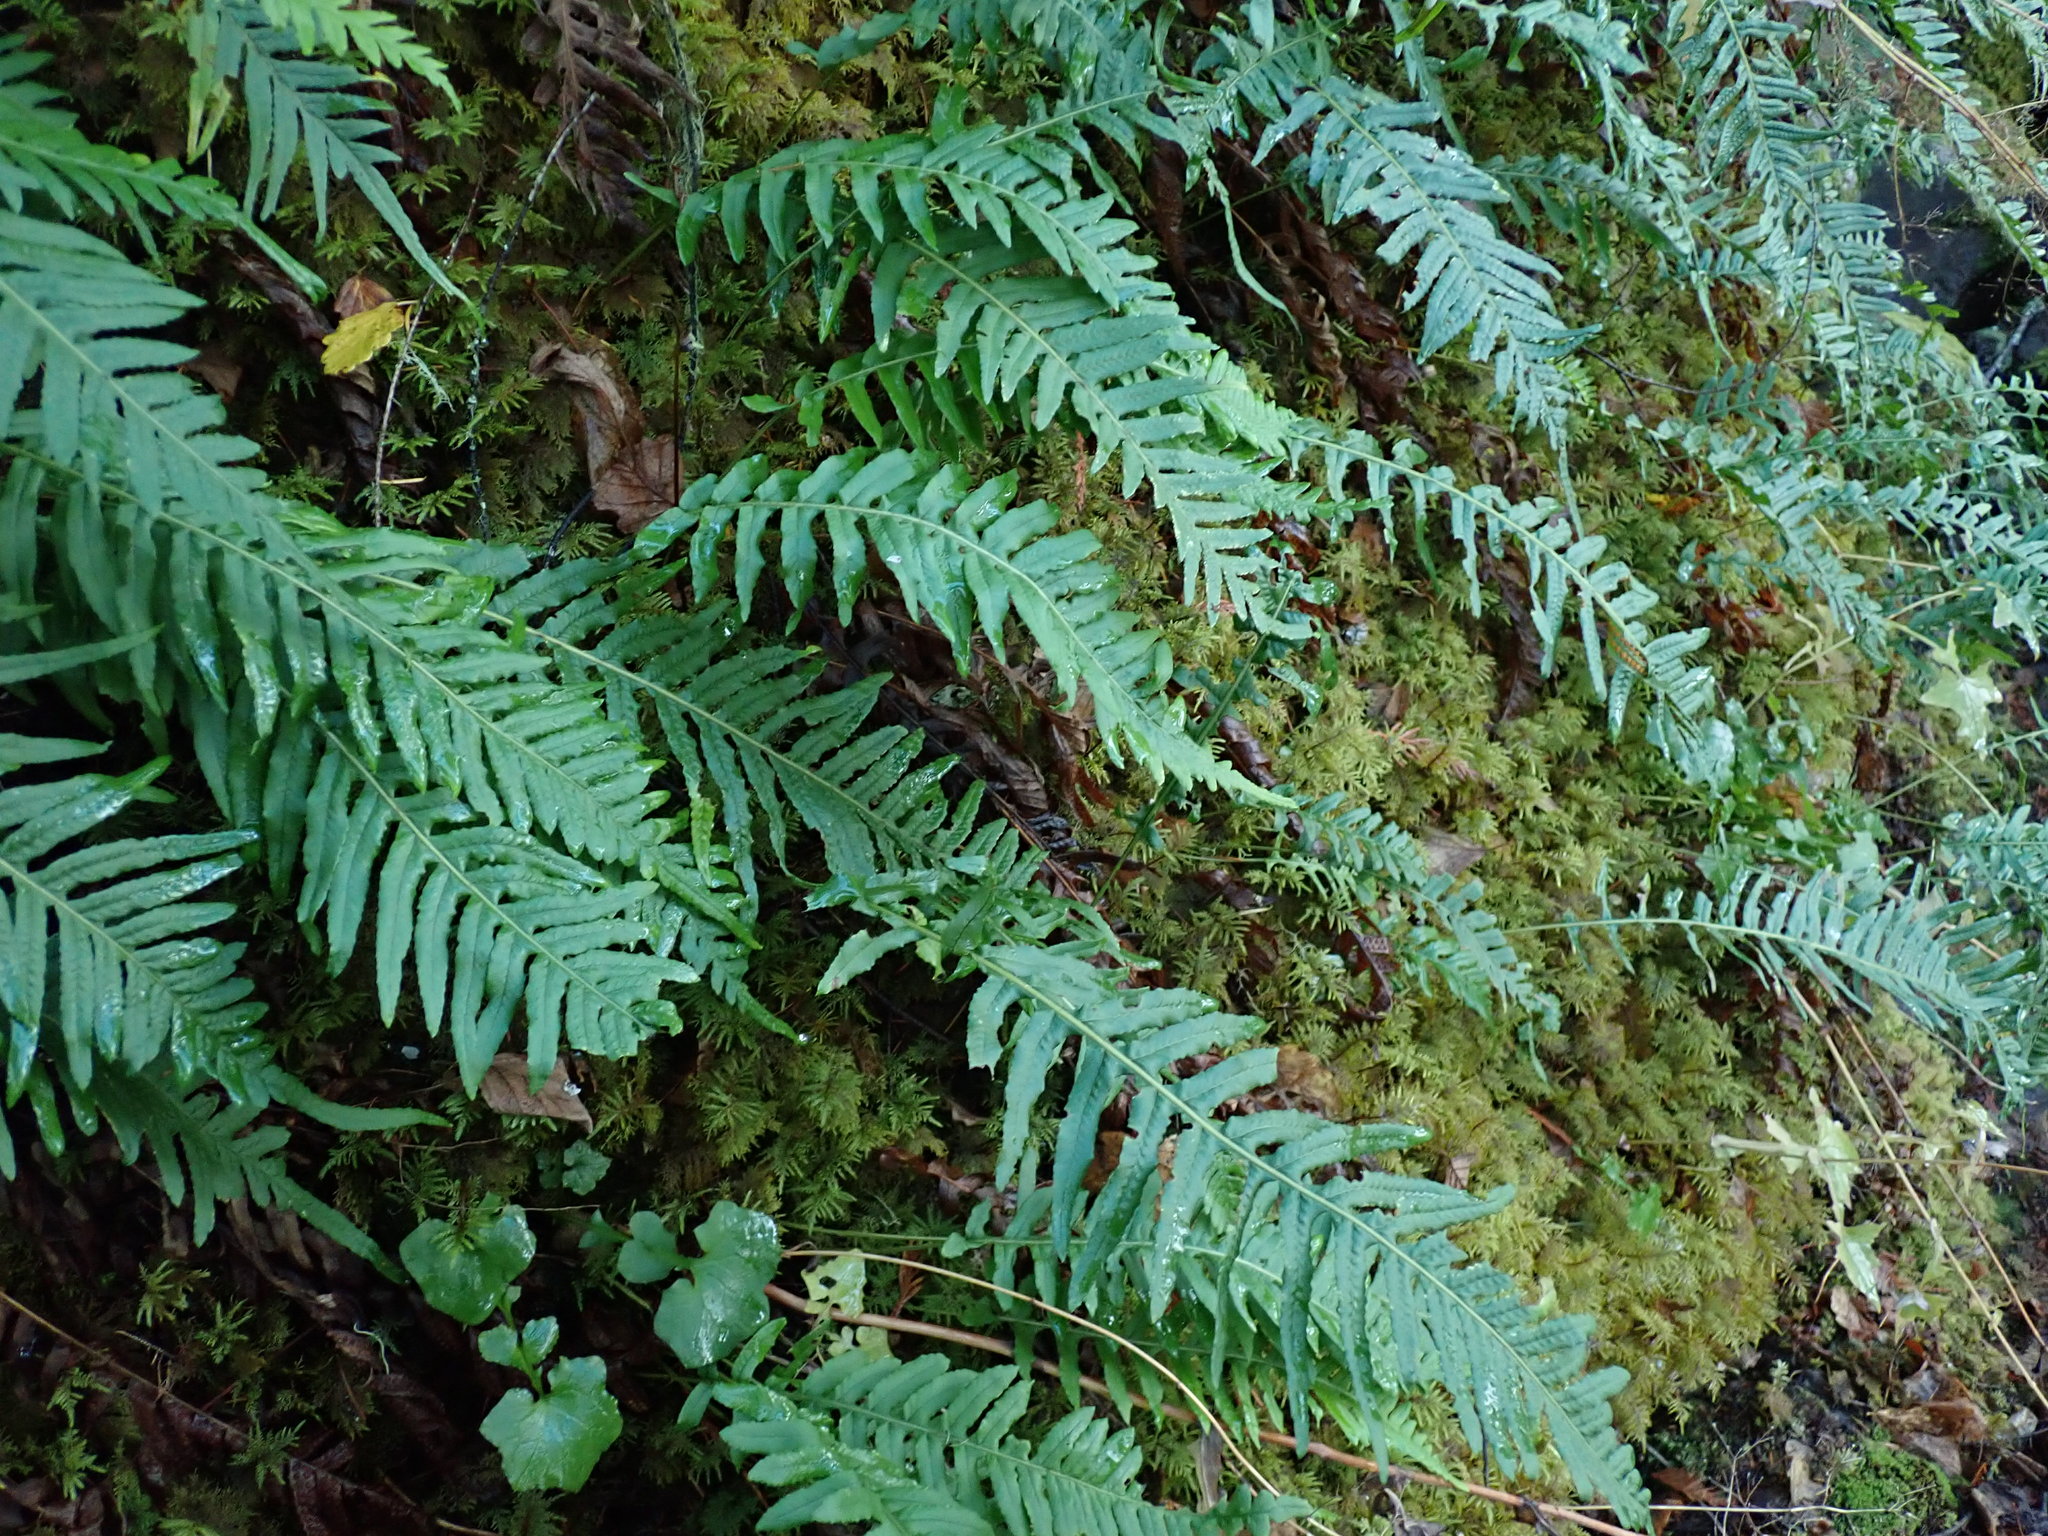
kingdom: Plantae
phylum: Tracheophyta
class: Polypodiopsida
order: Polypodiales
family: Polypodiaceae
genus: Polypodium
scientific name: Polypodium glycyrrhiza
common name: Licorice fern
